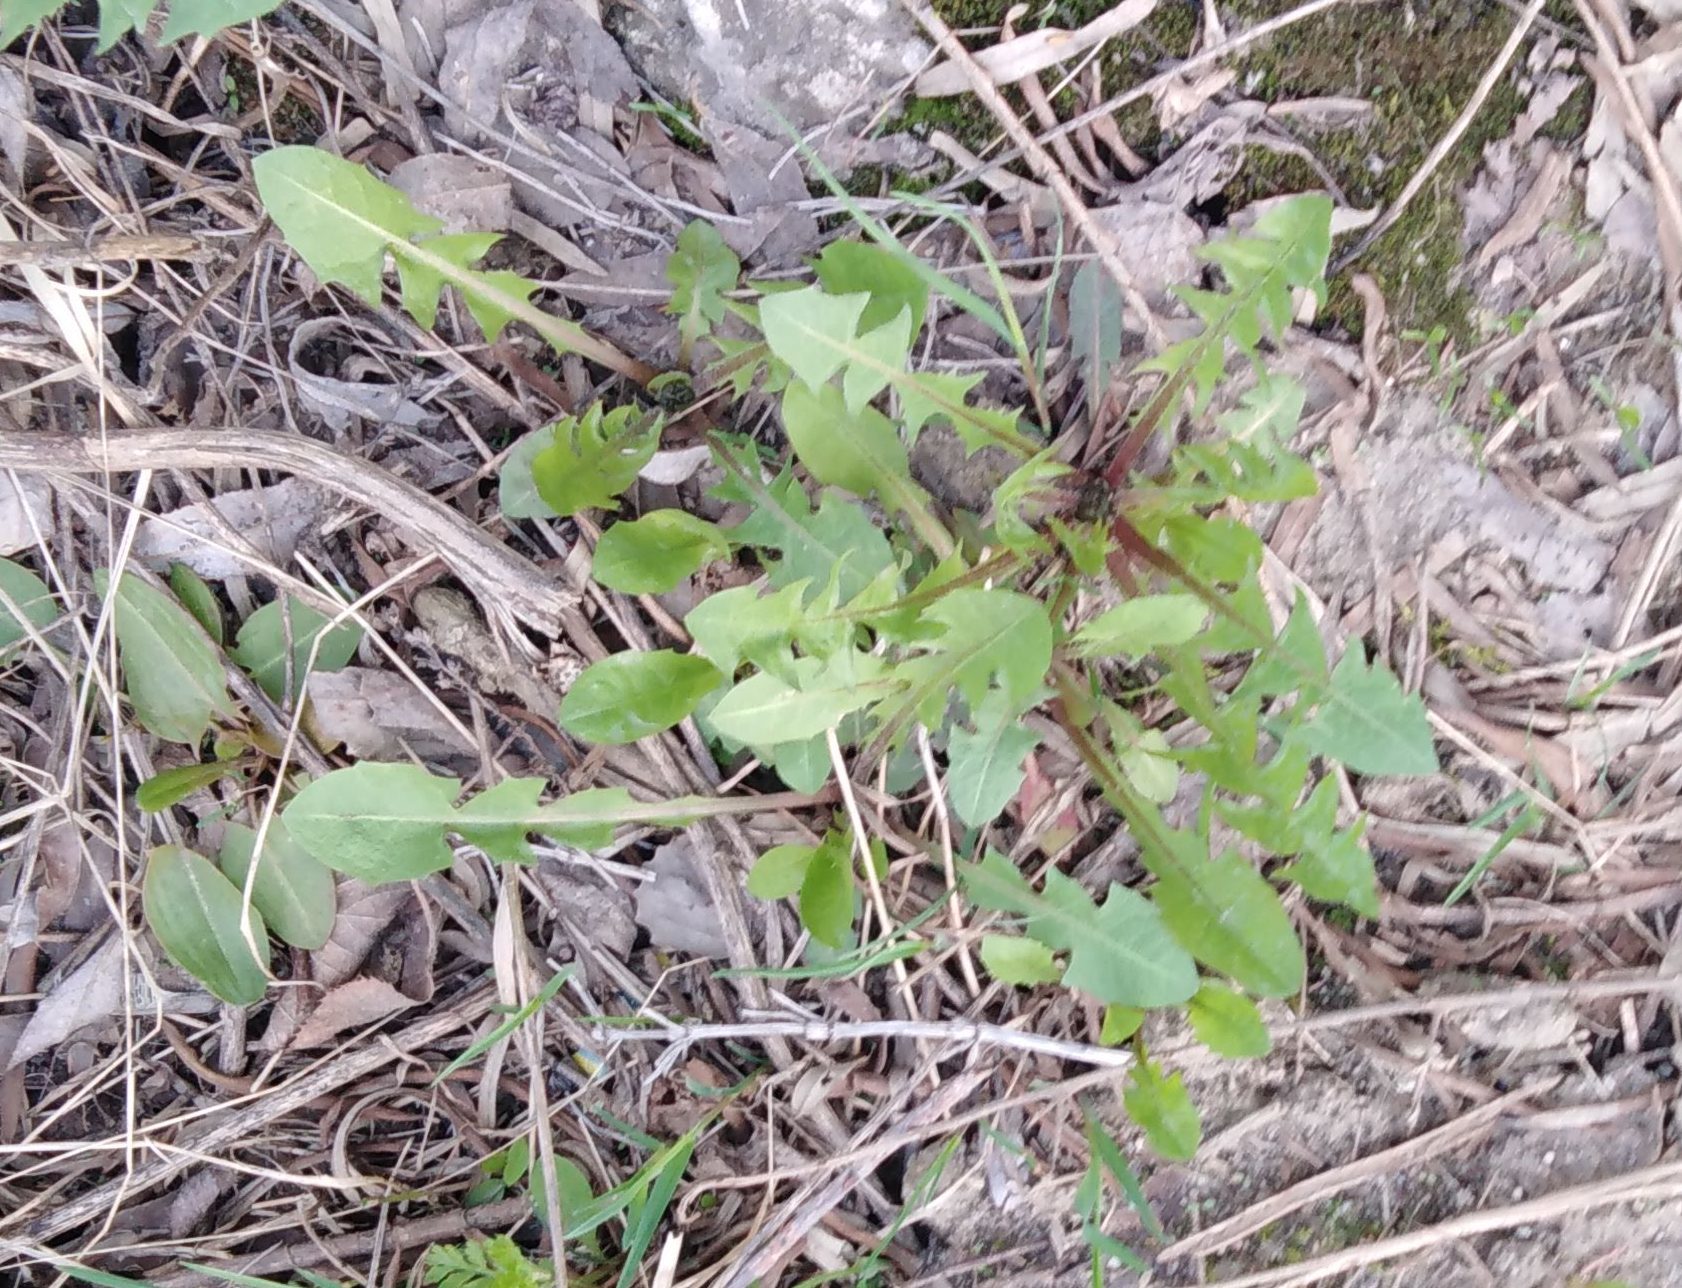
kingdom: Plantae
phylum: Tracheophyta
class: Magnoliopsida
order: Asterales
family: Asteraceae
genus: Taraxacum
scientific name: Taraxacum officinale
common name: Common dandelion
